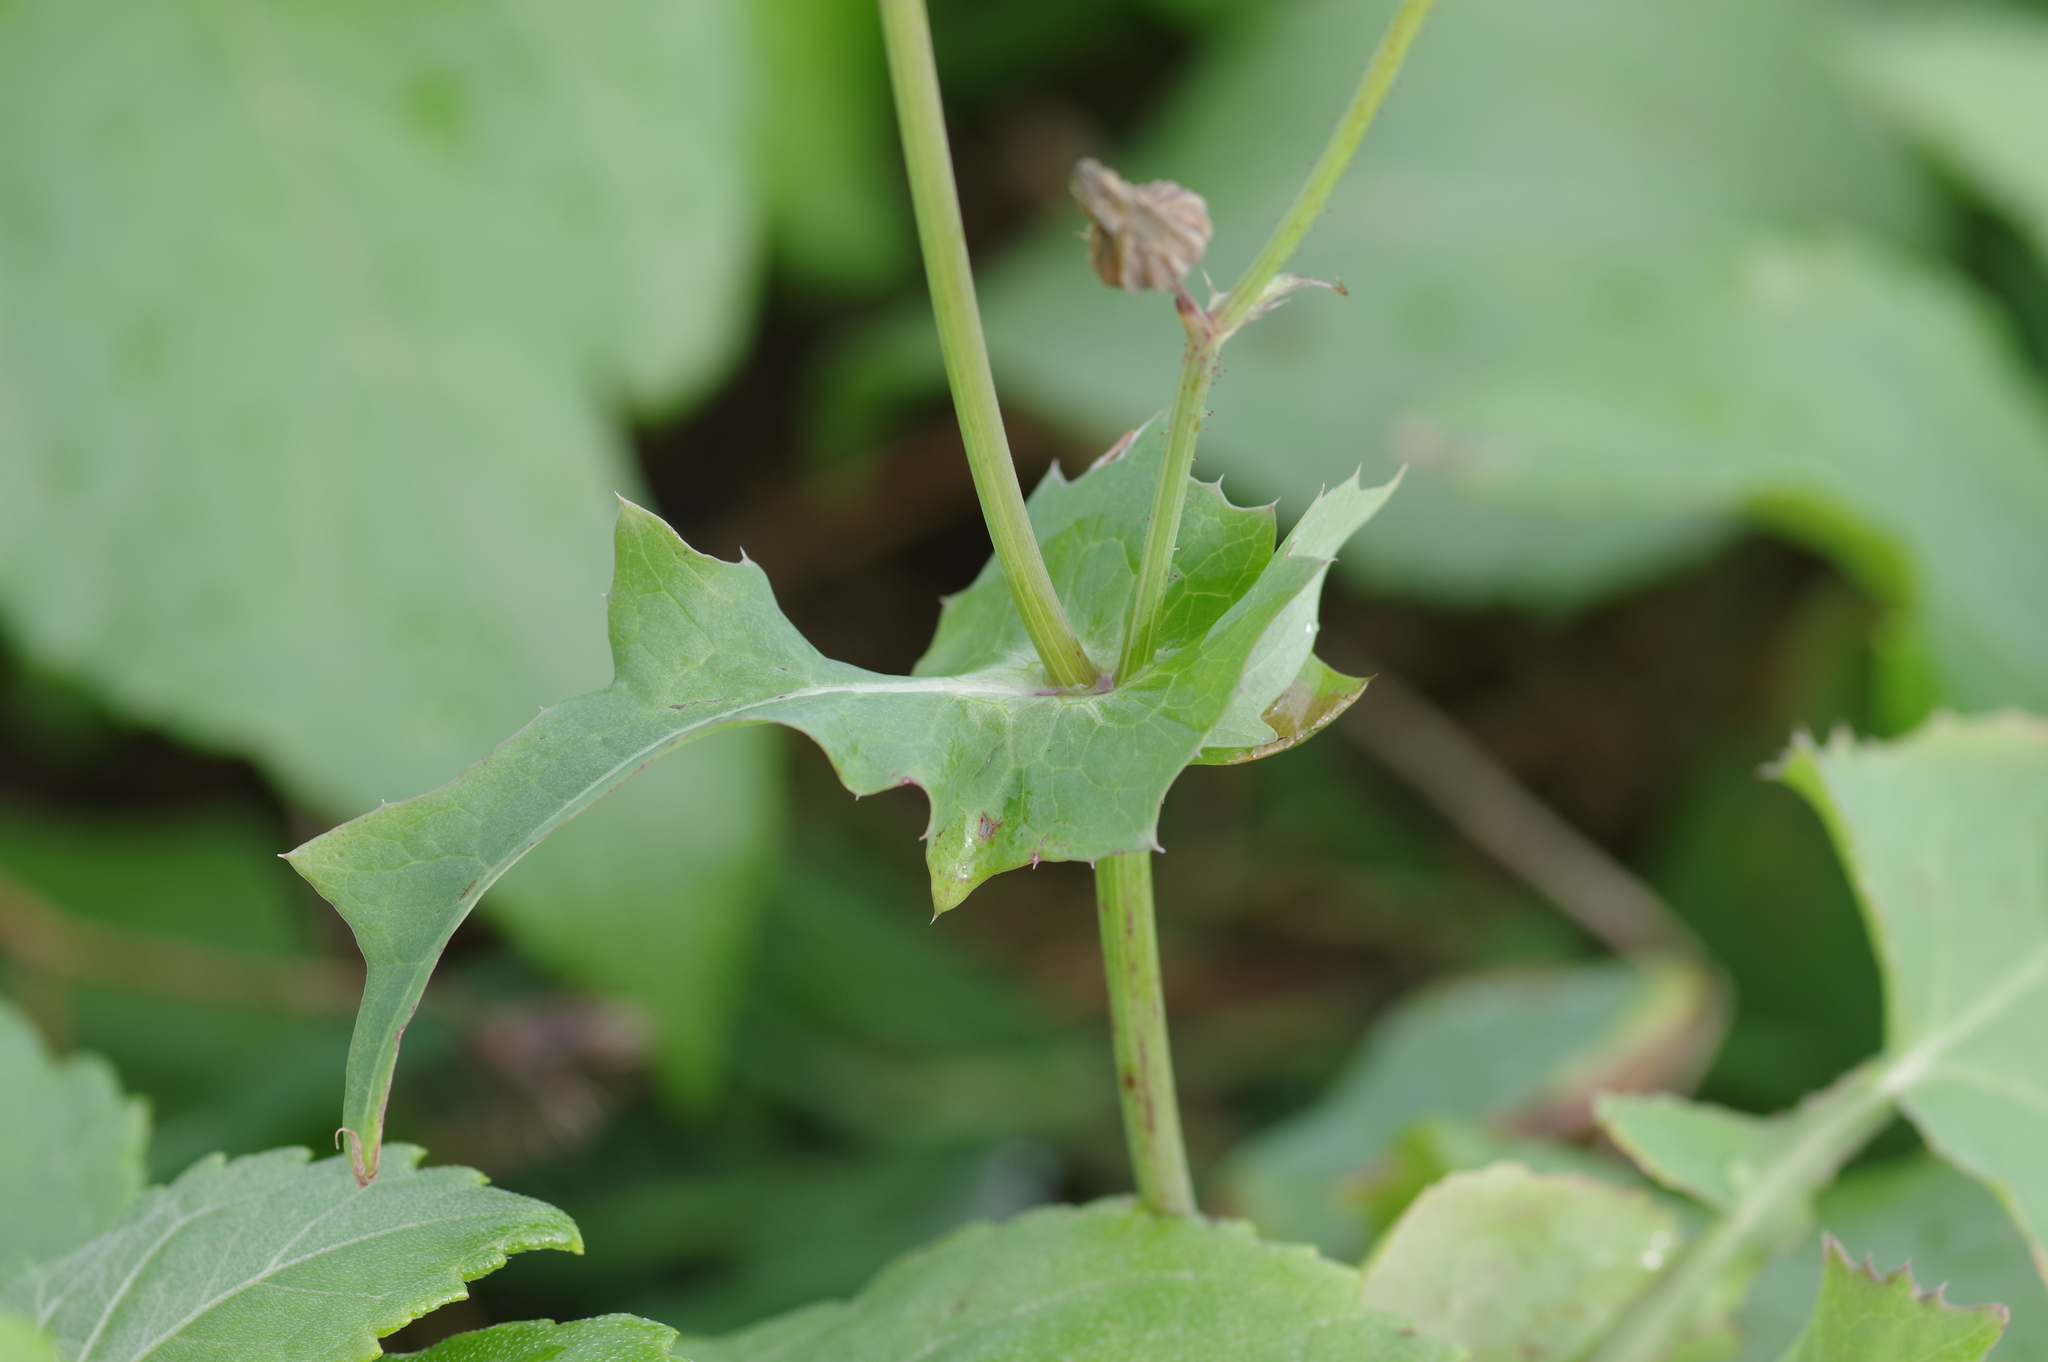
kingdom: Plantae
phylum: Tracheophyta
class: Magnoliopsida
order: Asterales
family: Asteraceae
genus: Sonchus
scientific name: Sonchus oleraceus
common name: Common sowthistle
